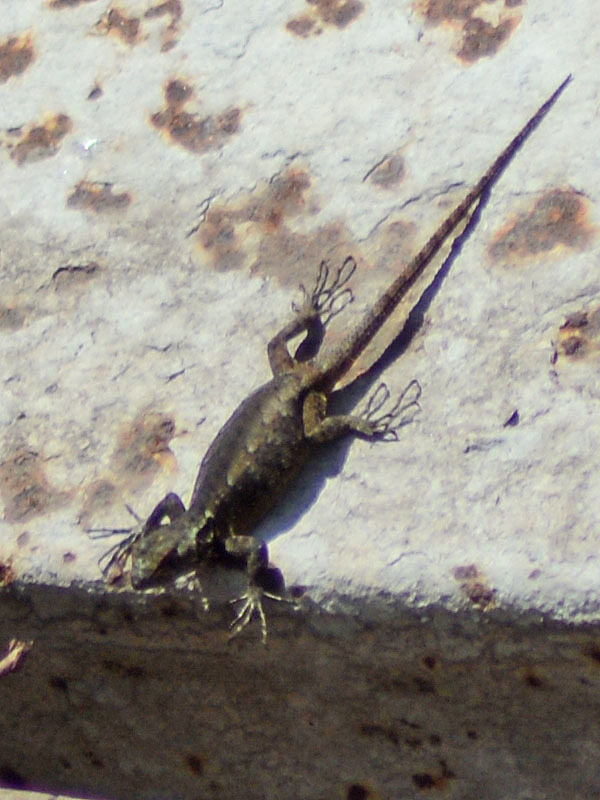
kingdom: Animalia
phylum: Chordata
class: Squamata
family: Phrynosomatidae
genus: Sceloporus
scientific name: Sceloporus grammicus
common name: Mesquite lizard
